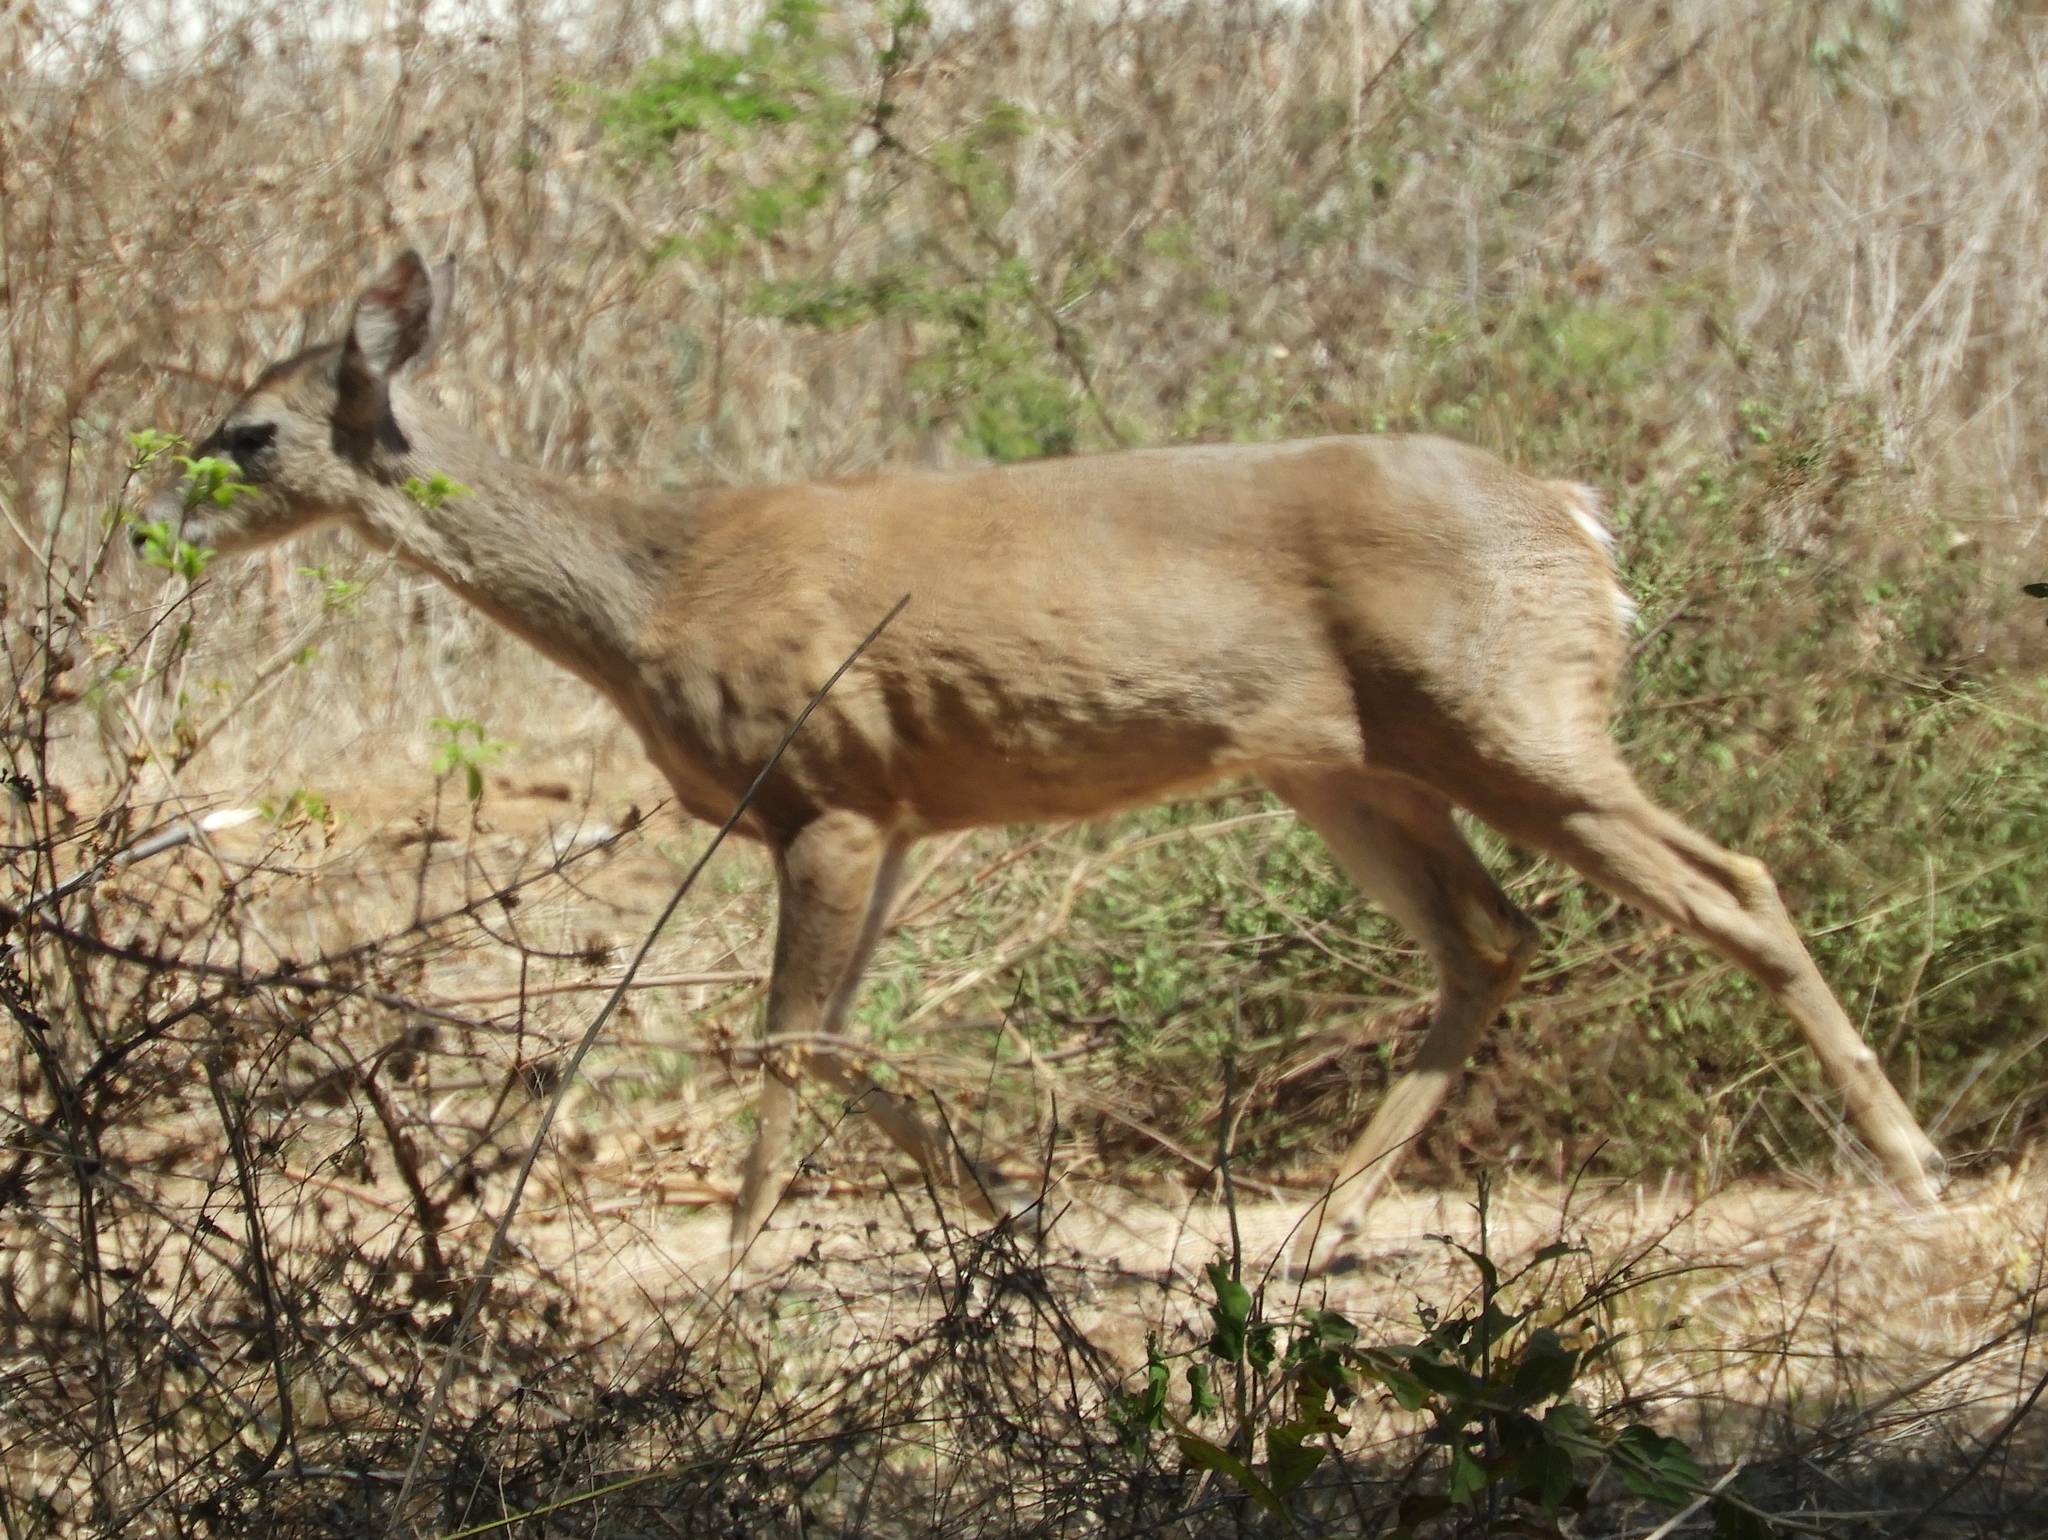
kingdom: Animalia
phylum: Chordata
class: Mammalia
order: Artiodactyla
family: Cervidae
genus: Odocoileus
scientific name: Odocoileus virginianus
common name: White-tailed deer
